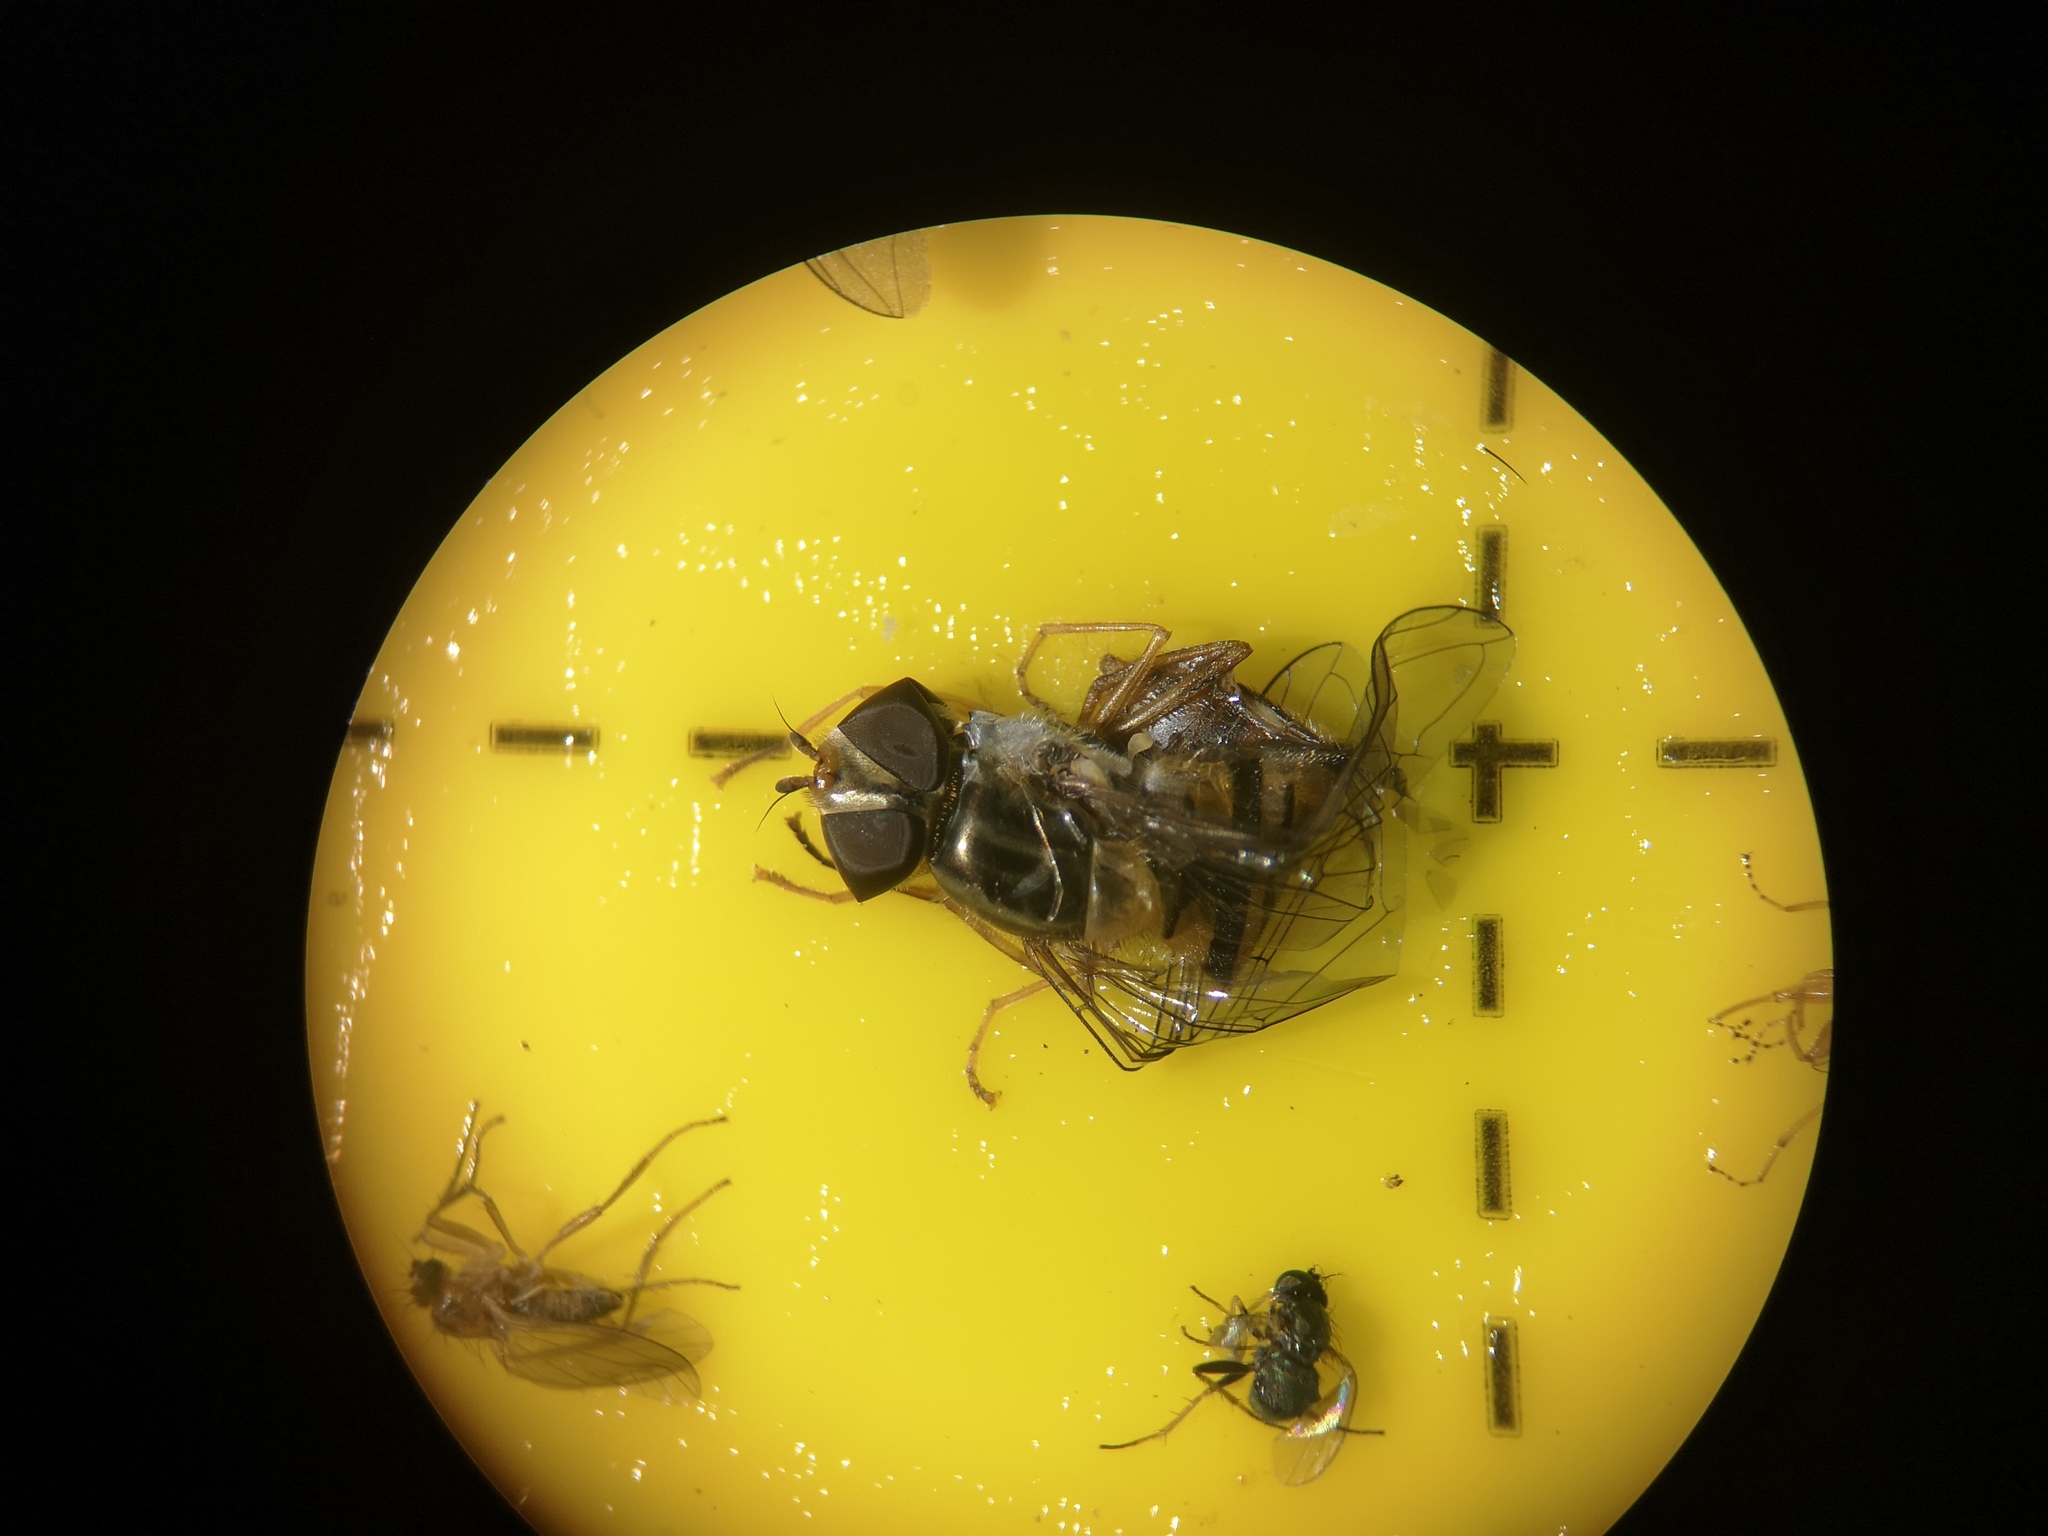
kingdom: Animalia
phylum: Arthropoda
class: Insecta
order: Diptera
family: Syrphidae
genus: Episyrphus
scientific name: Episyrphus balteatus
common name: Marmalade hoverfly
